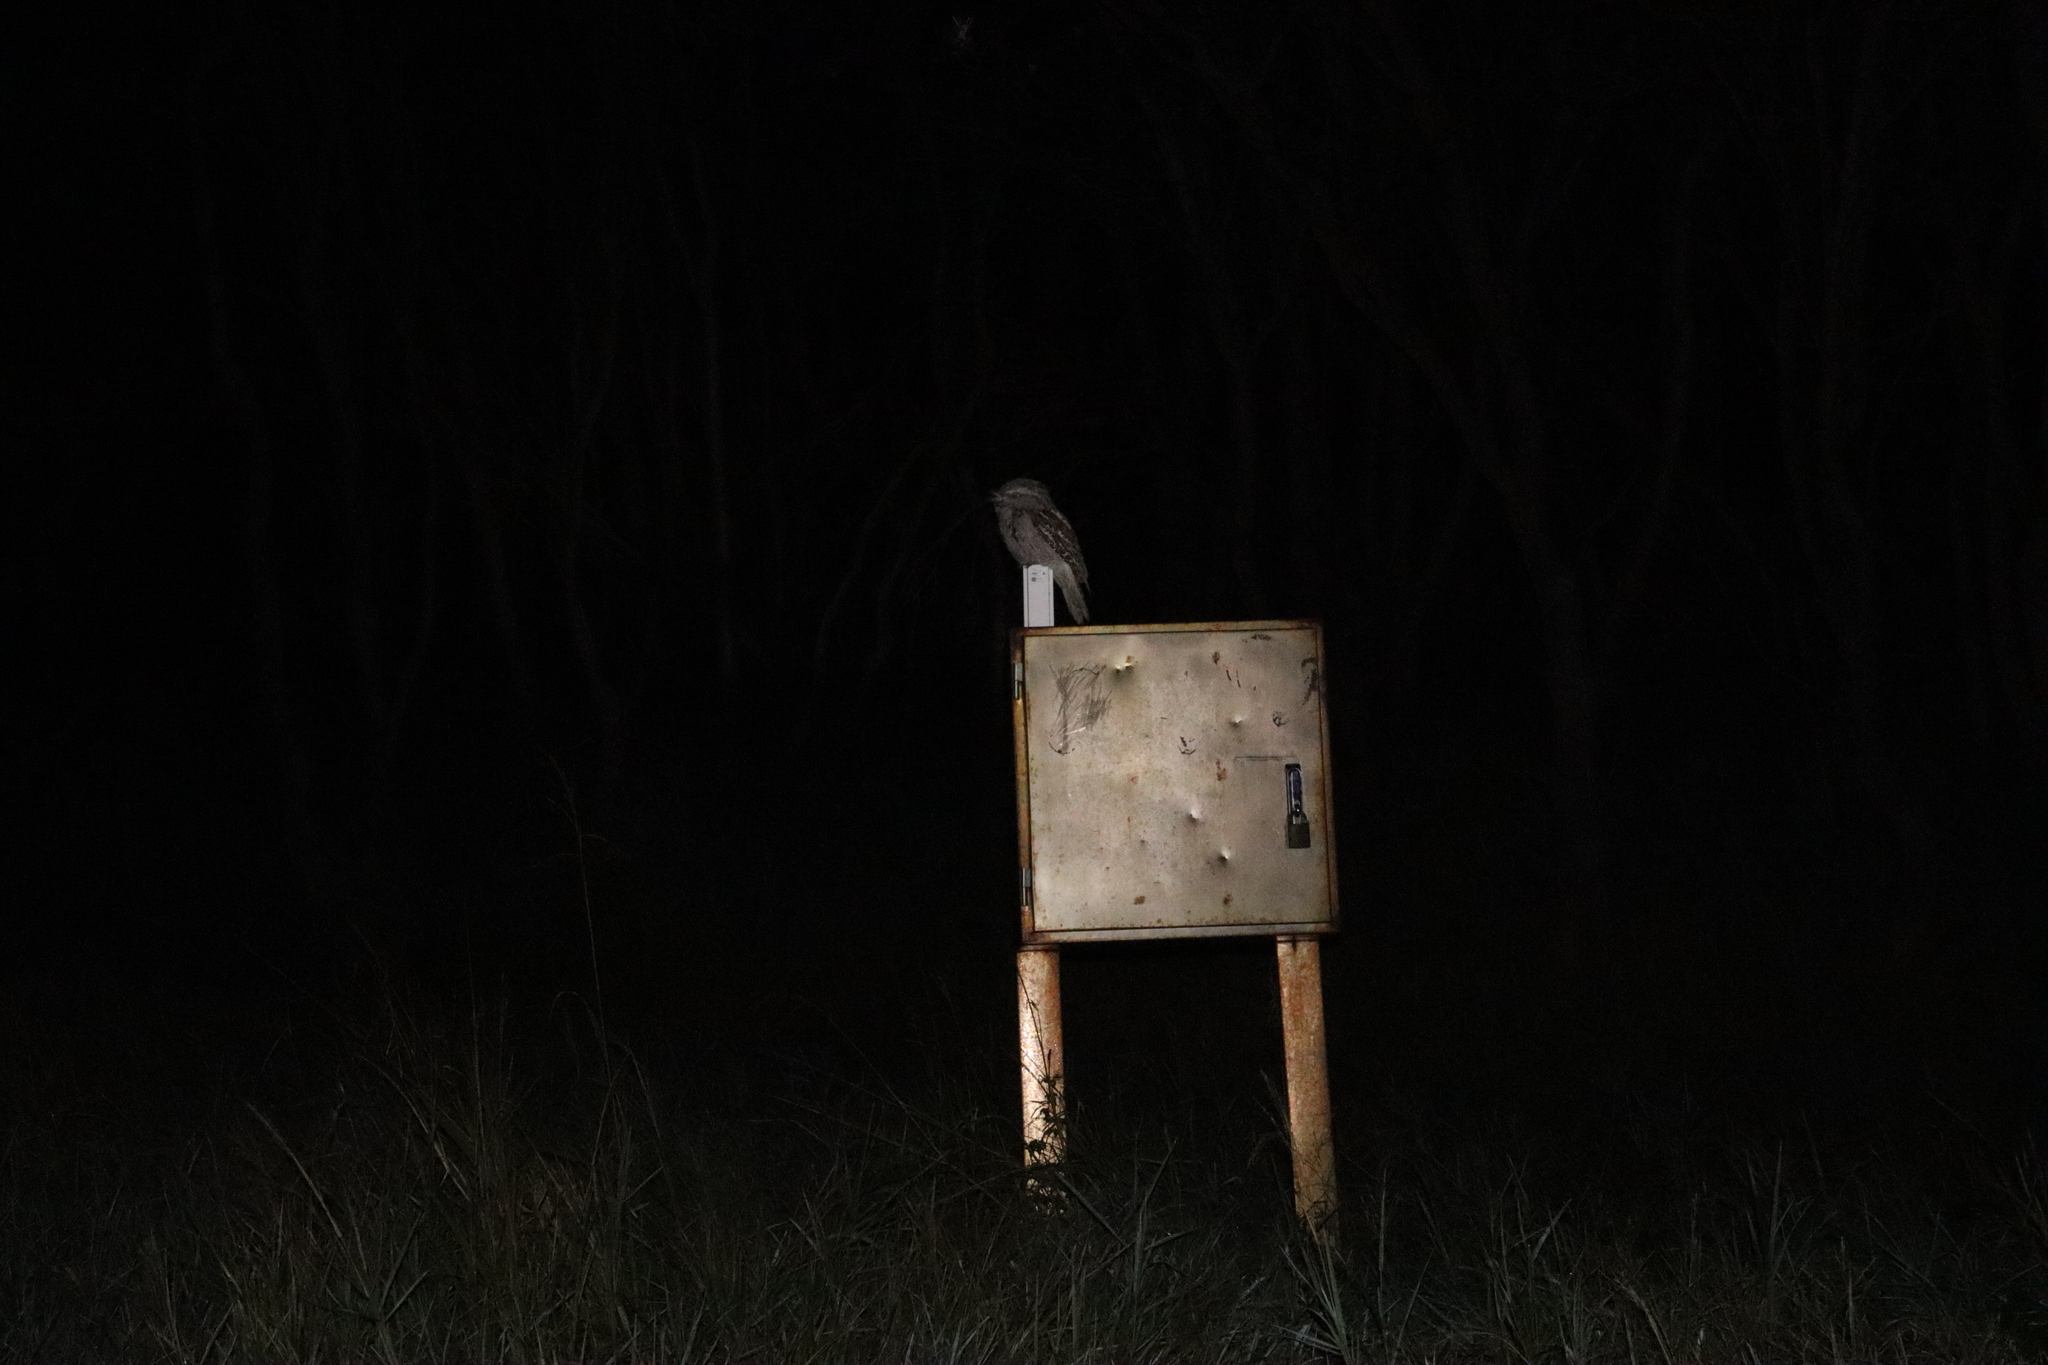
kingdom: Animalia
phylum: Chordata
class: Aves
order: Caprimulgiformes
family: Podargidae
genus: Podargus
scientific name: Podargus strigoides
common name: Tawny frogmouth
